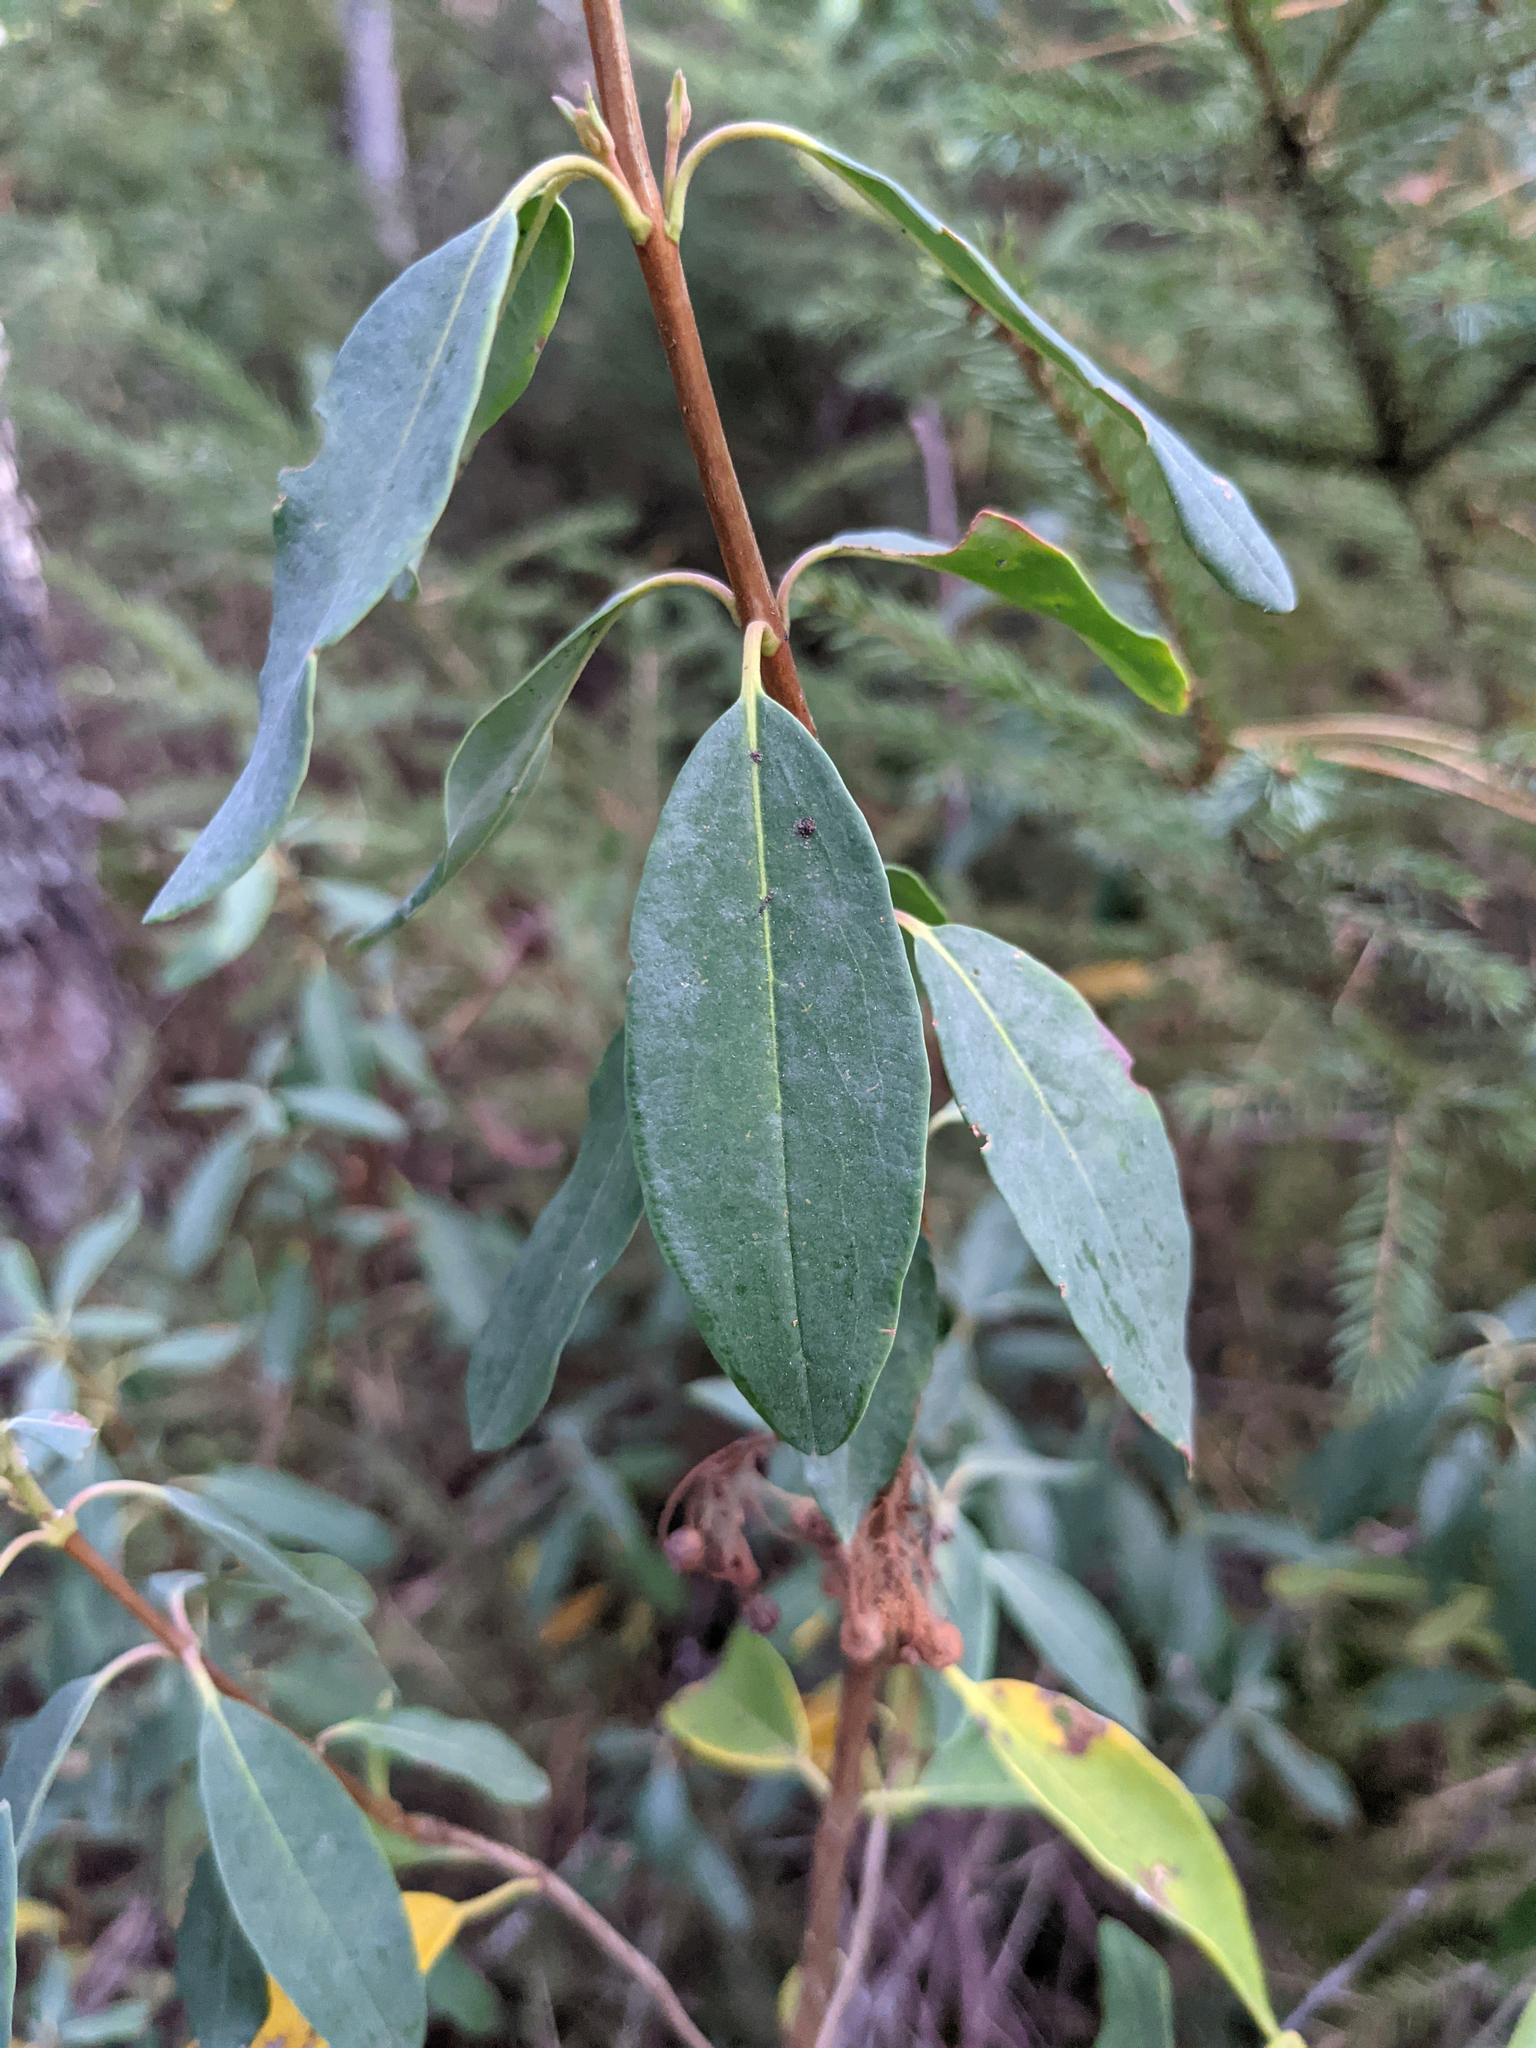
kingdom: Plantae
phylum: Tracheophyta
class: Magnoliopsida
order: Ericales
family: Ericaceae
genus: Kalmia
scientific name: Kalmia angustifolia
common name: Sheep-laurel
